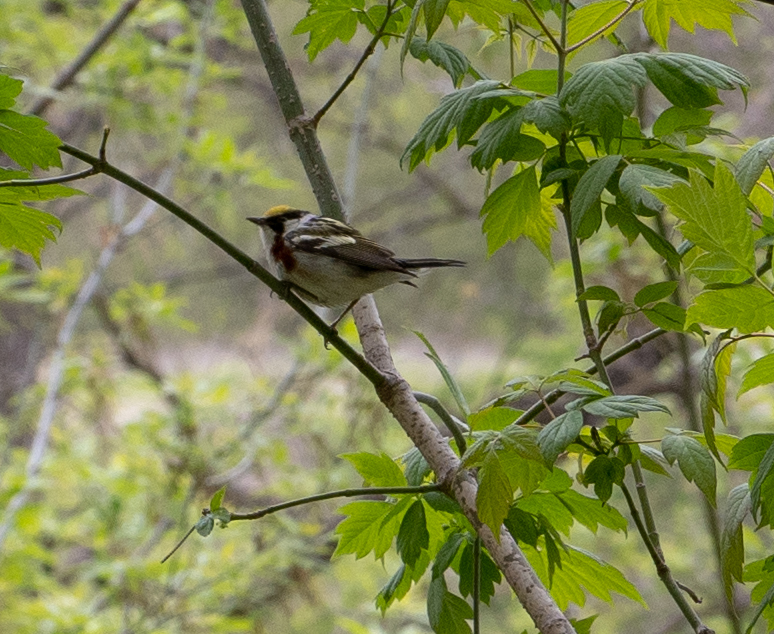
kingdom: Animalia
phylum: Chordata
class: Aves
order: Passeriformes
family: Parulidae
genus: Setophaga
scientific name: Setophaga pensylvanica
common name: Chestnut-sided warbler
